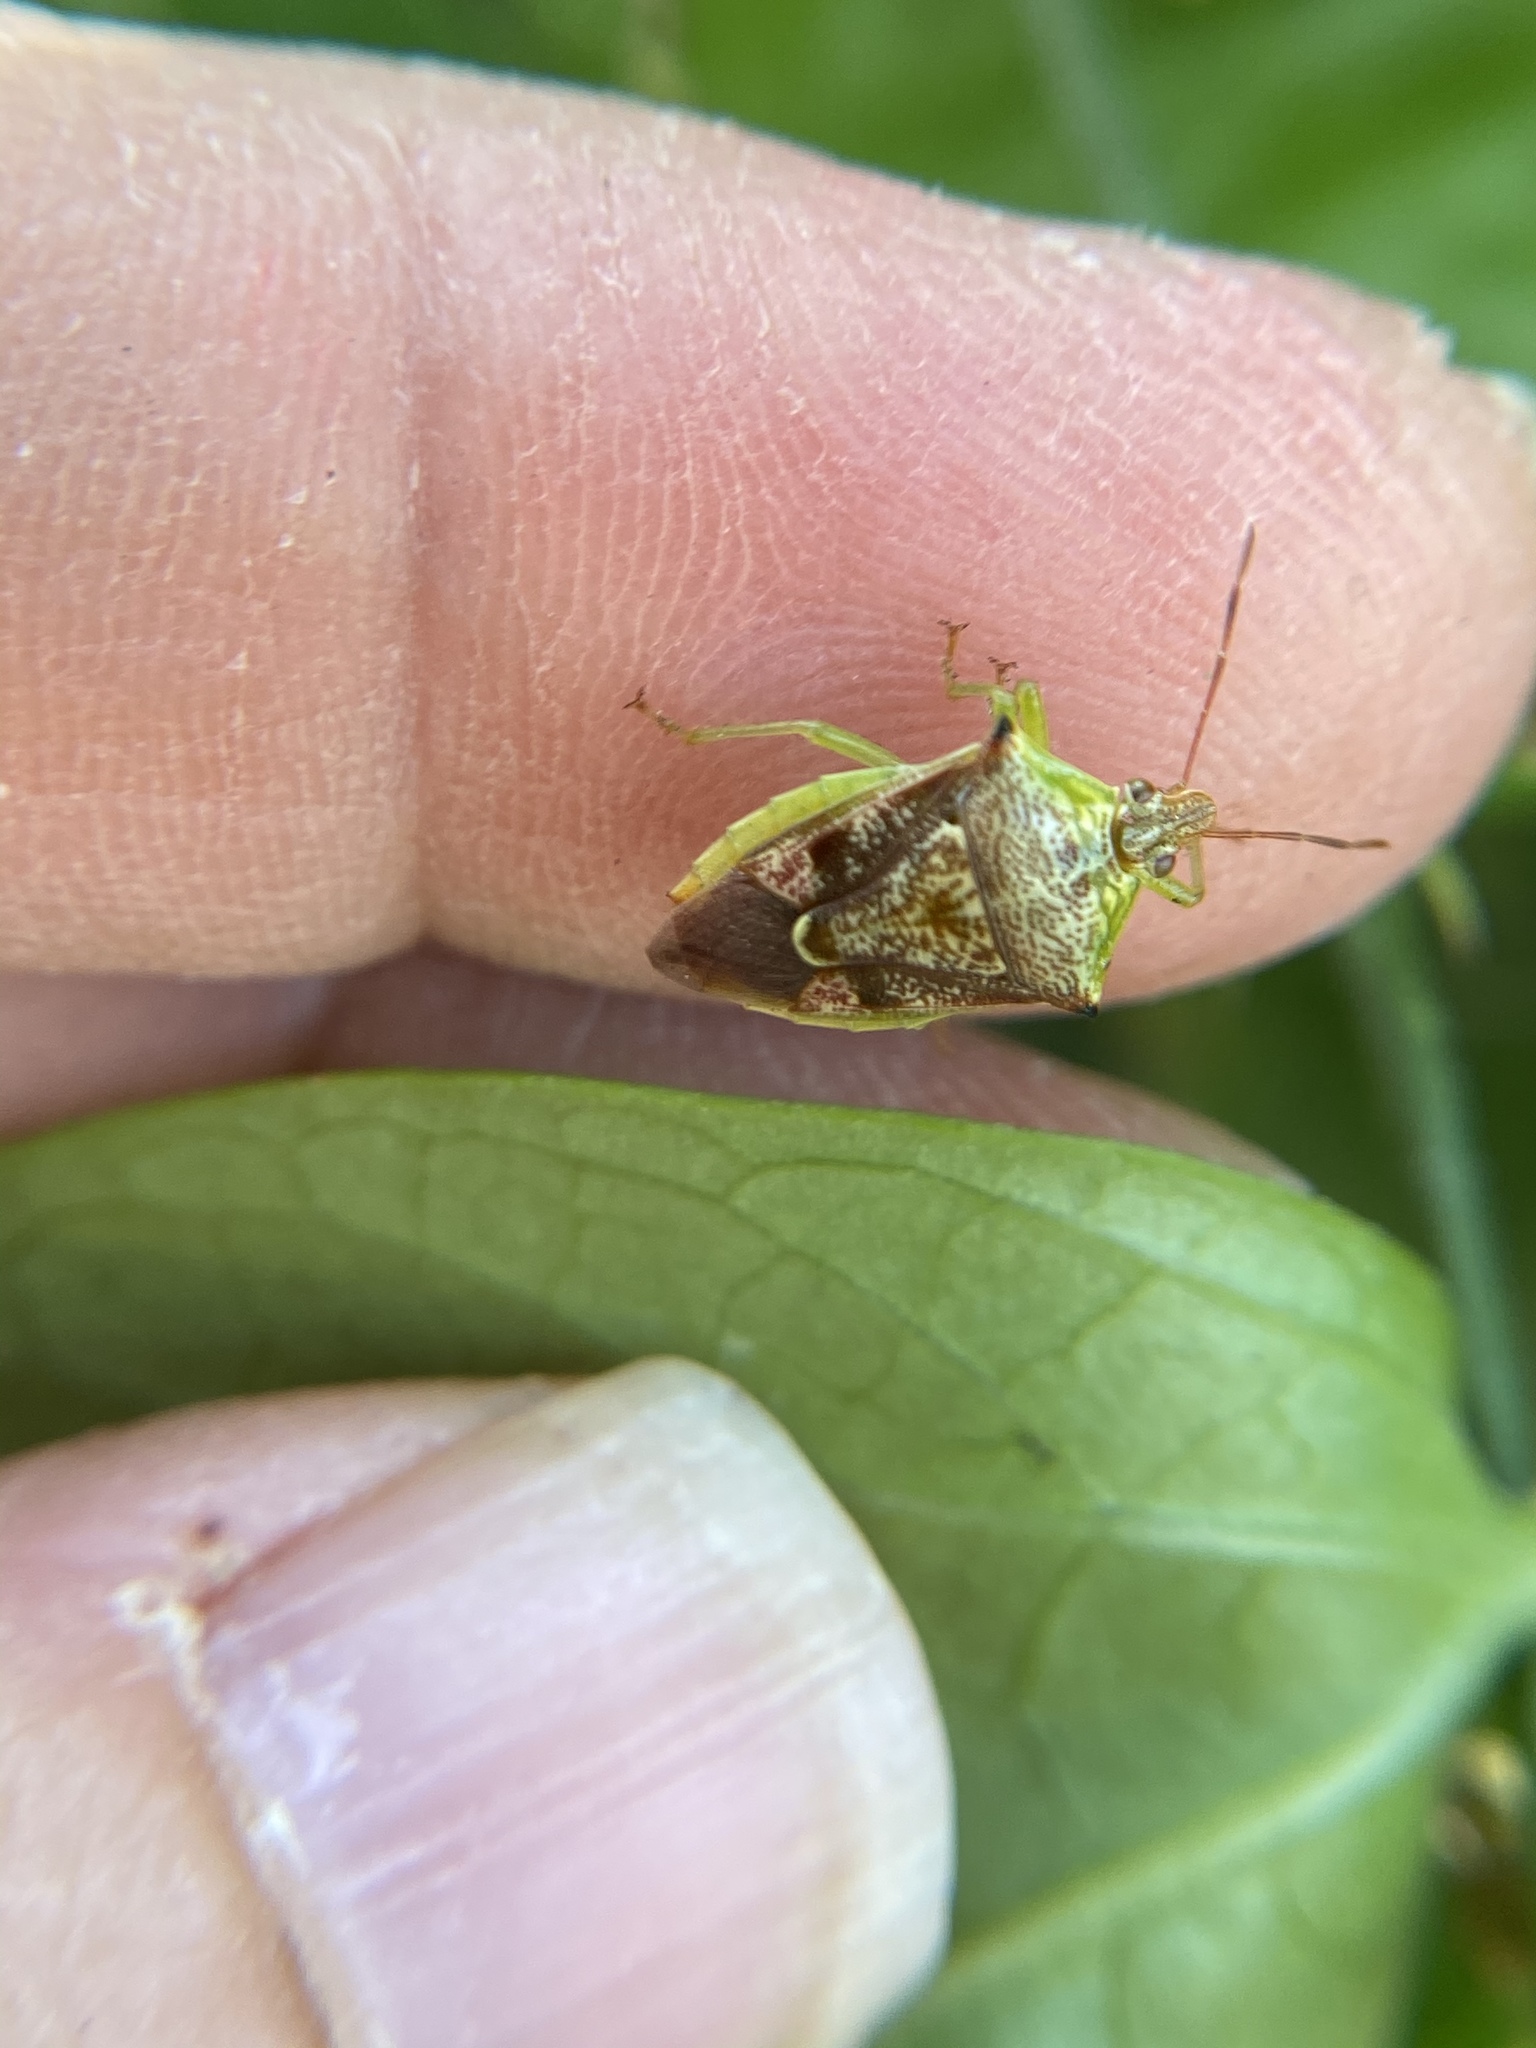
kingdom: Animalia
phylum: Arthropoda
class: Insecta
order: Hemiptera
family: Pentatomidae
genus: Tyrannocoris
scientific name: Tyrannocoris jole
